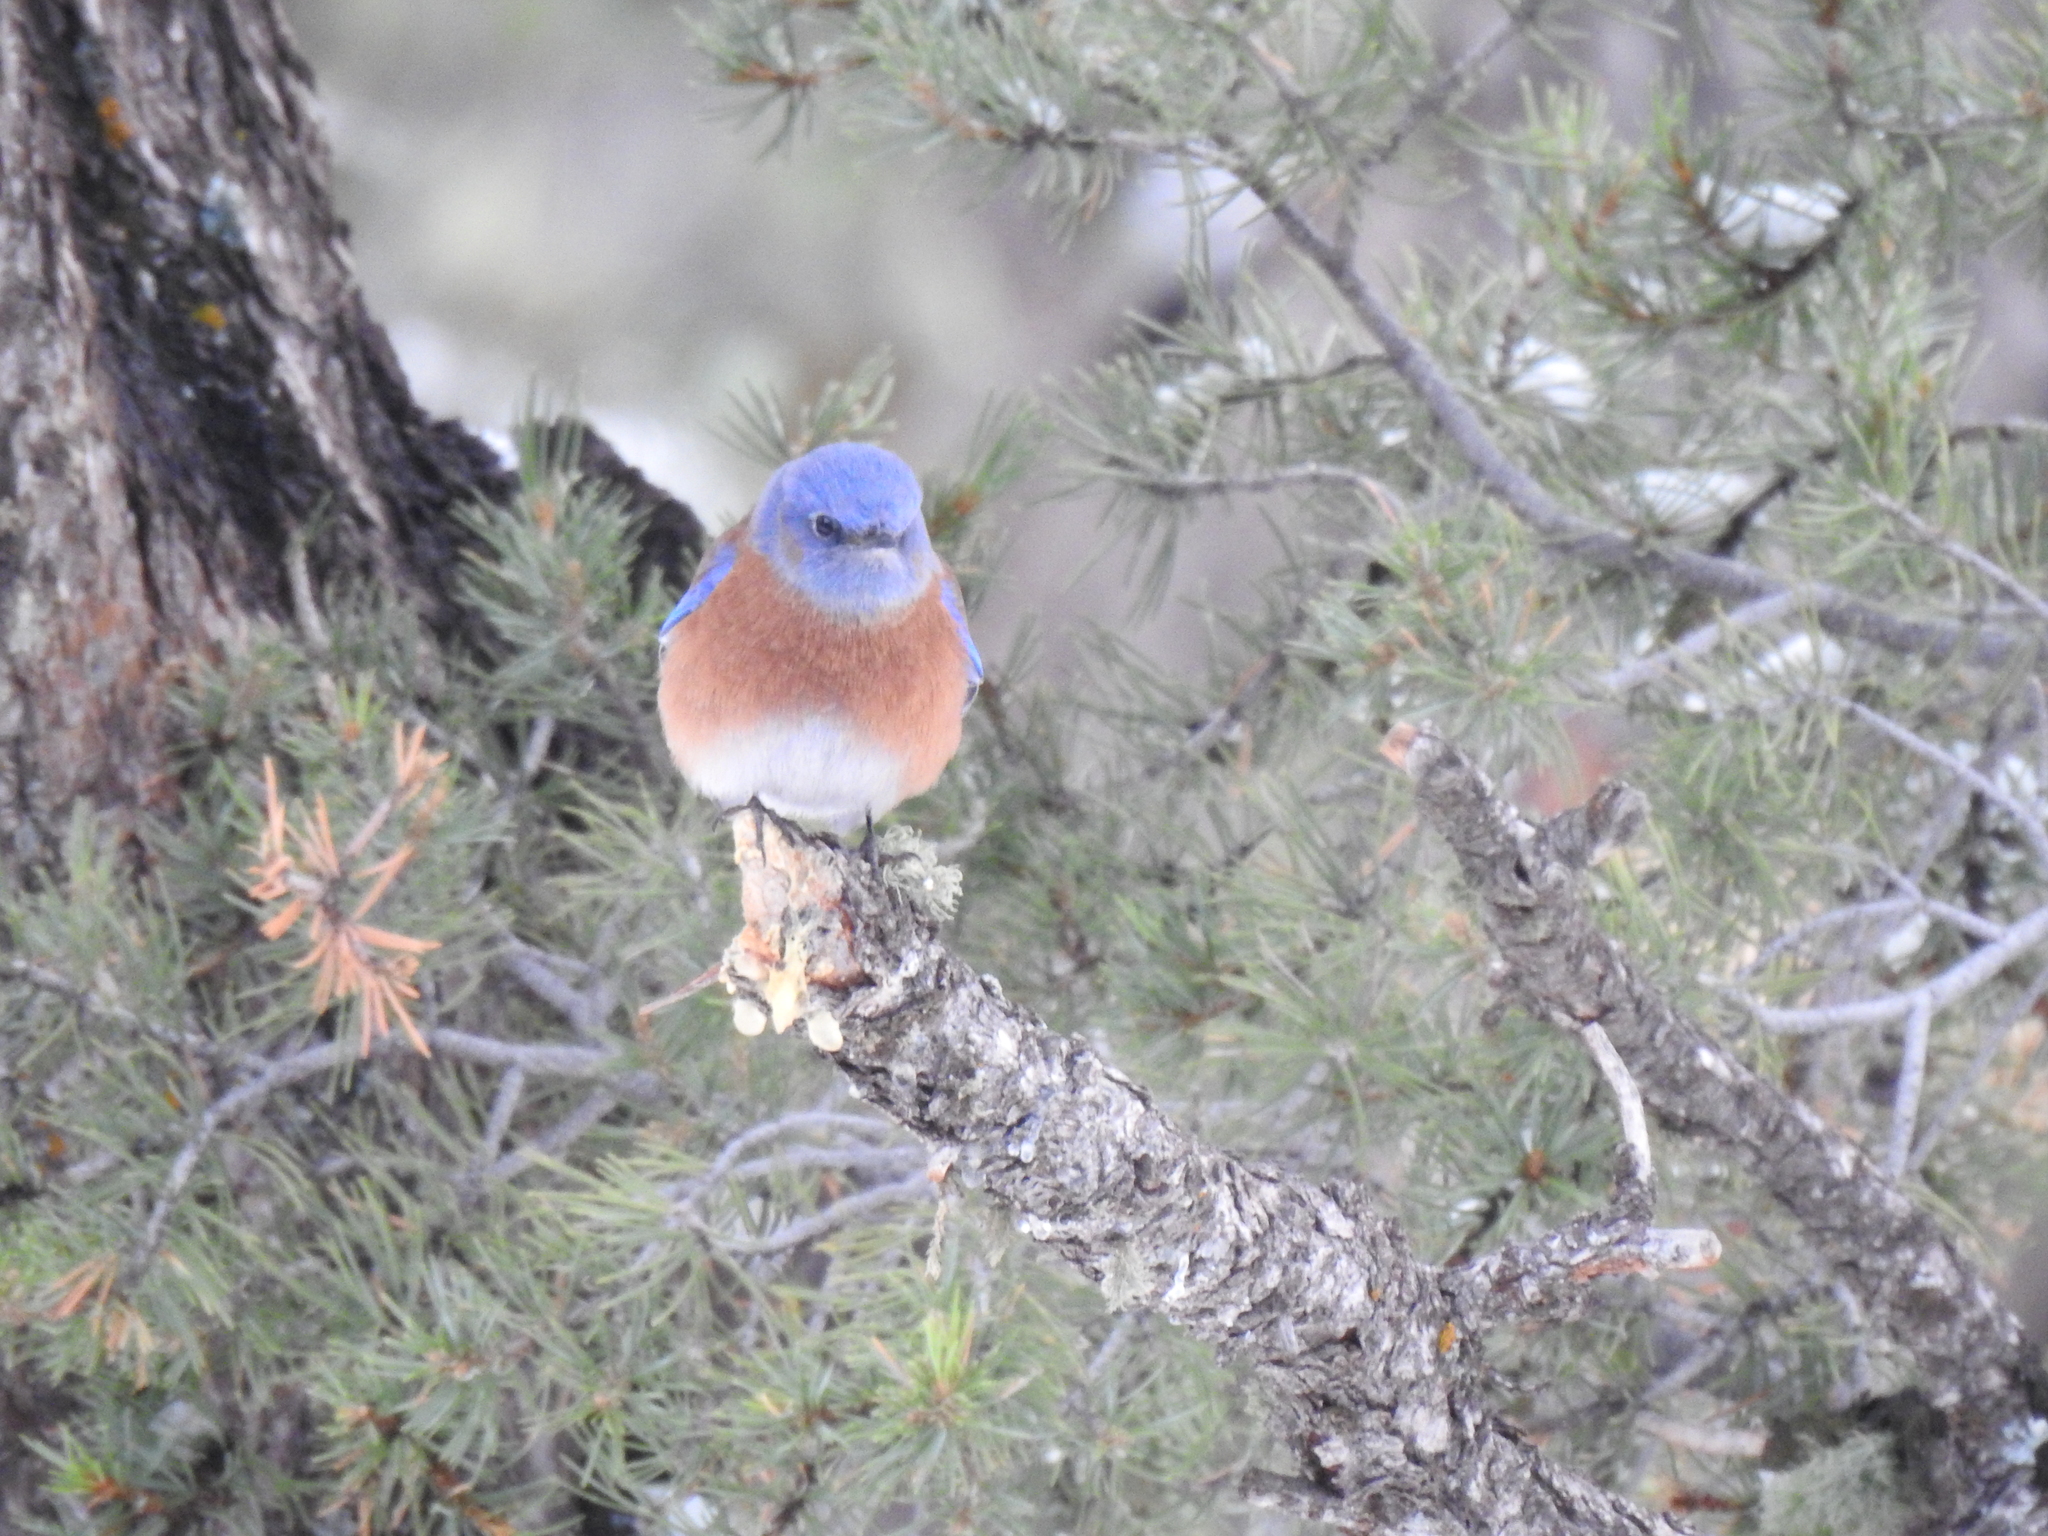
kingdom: Animalia
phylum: Chordata
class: Aves
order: Passeriformes
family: Turdidae
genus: Sialia
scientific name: Sialia mexicana
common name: Western bluebird
